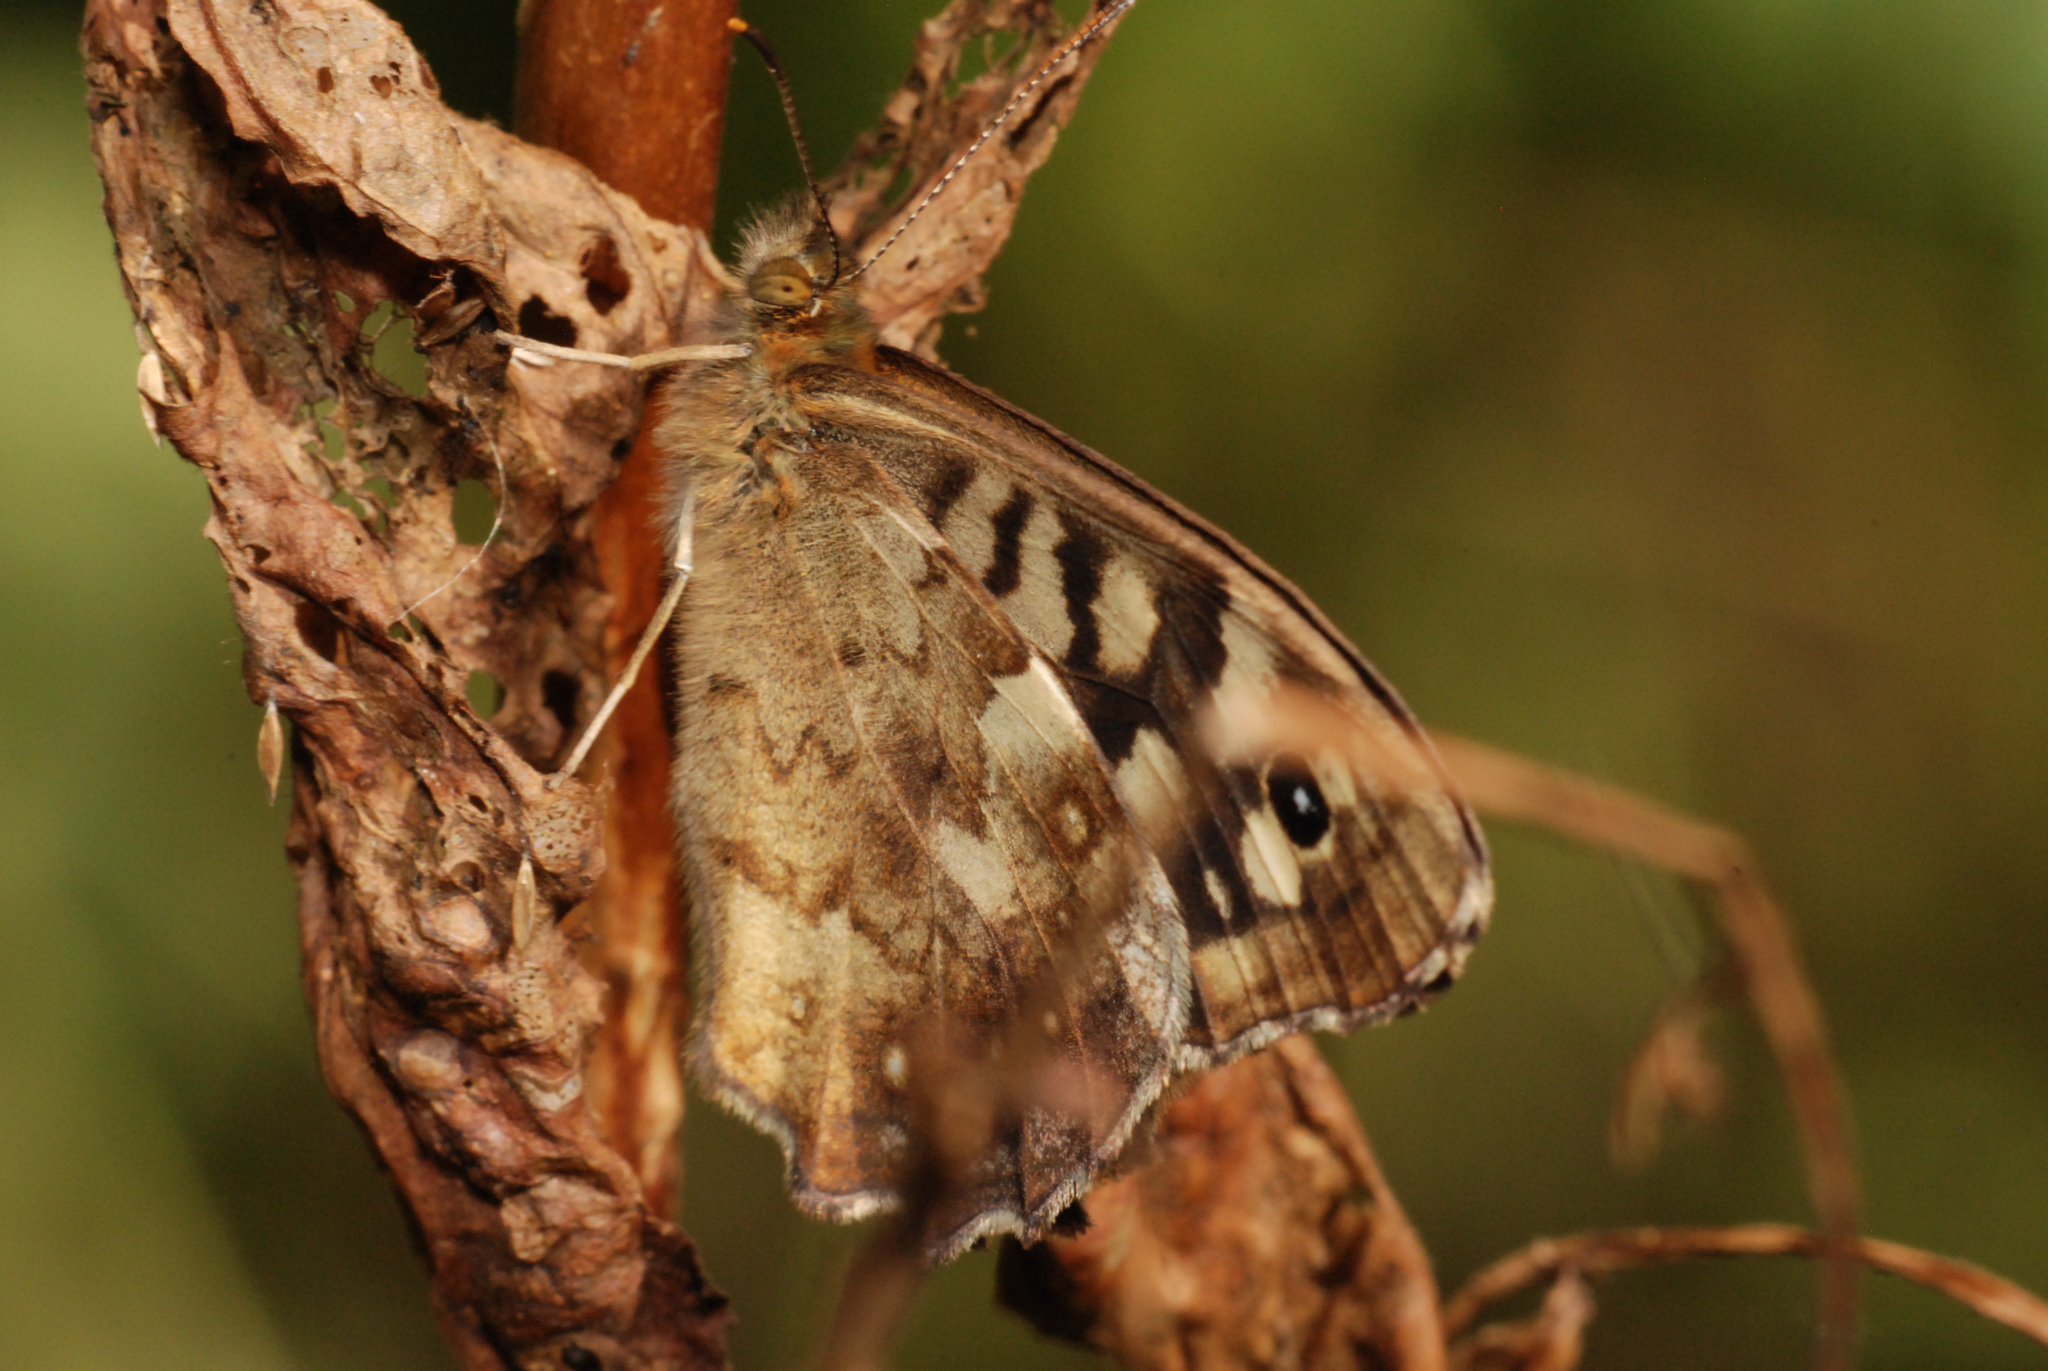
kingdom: Animalia
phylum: Arthropoda
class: Insecta
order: Lepidoptera
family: Nymphalidae
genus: Pararge
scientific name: Pararge aegeria
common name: Speckled wood
